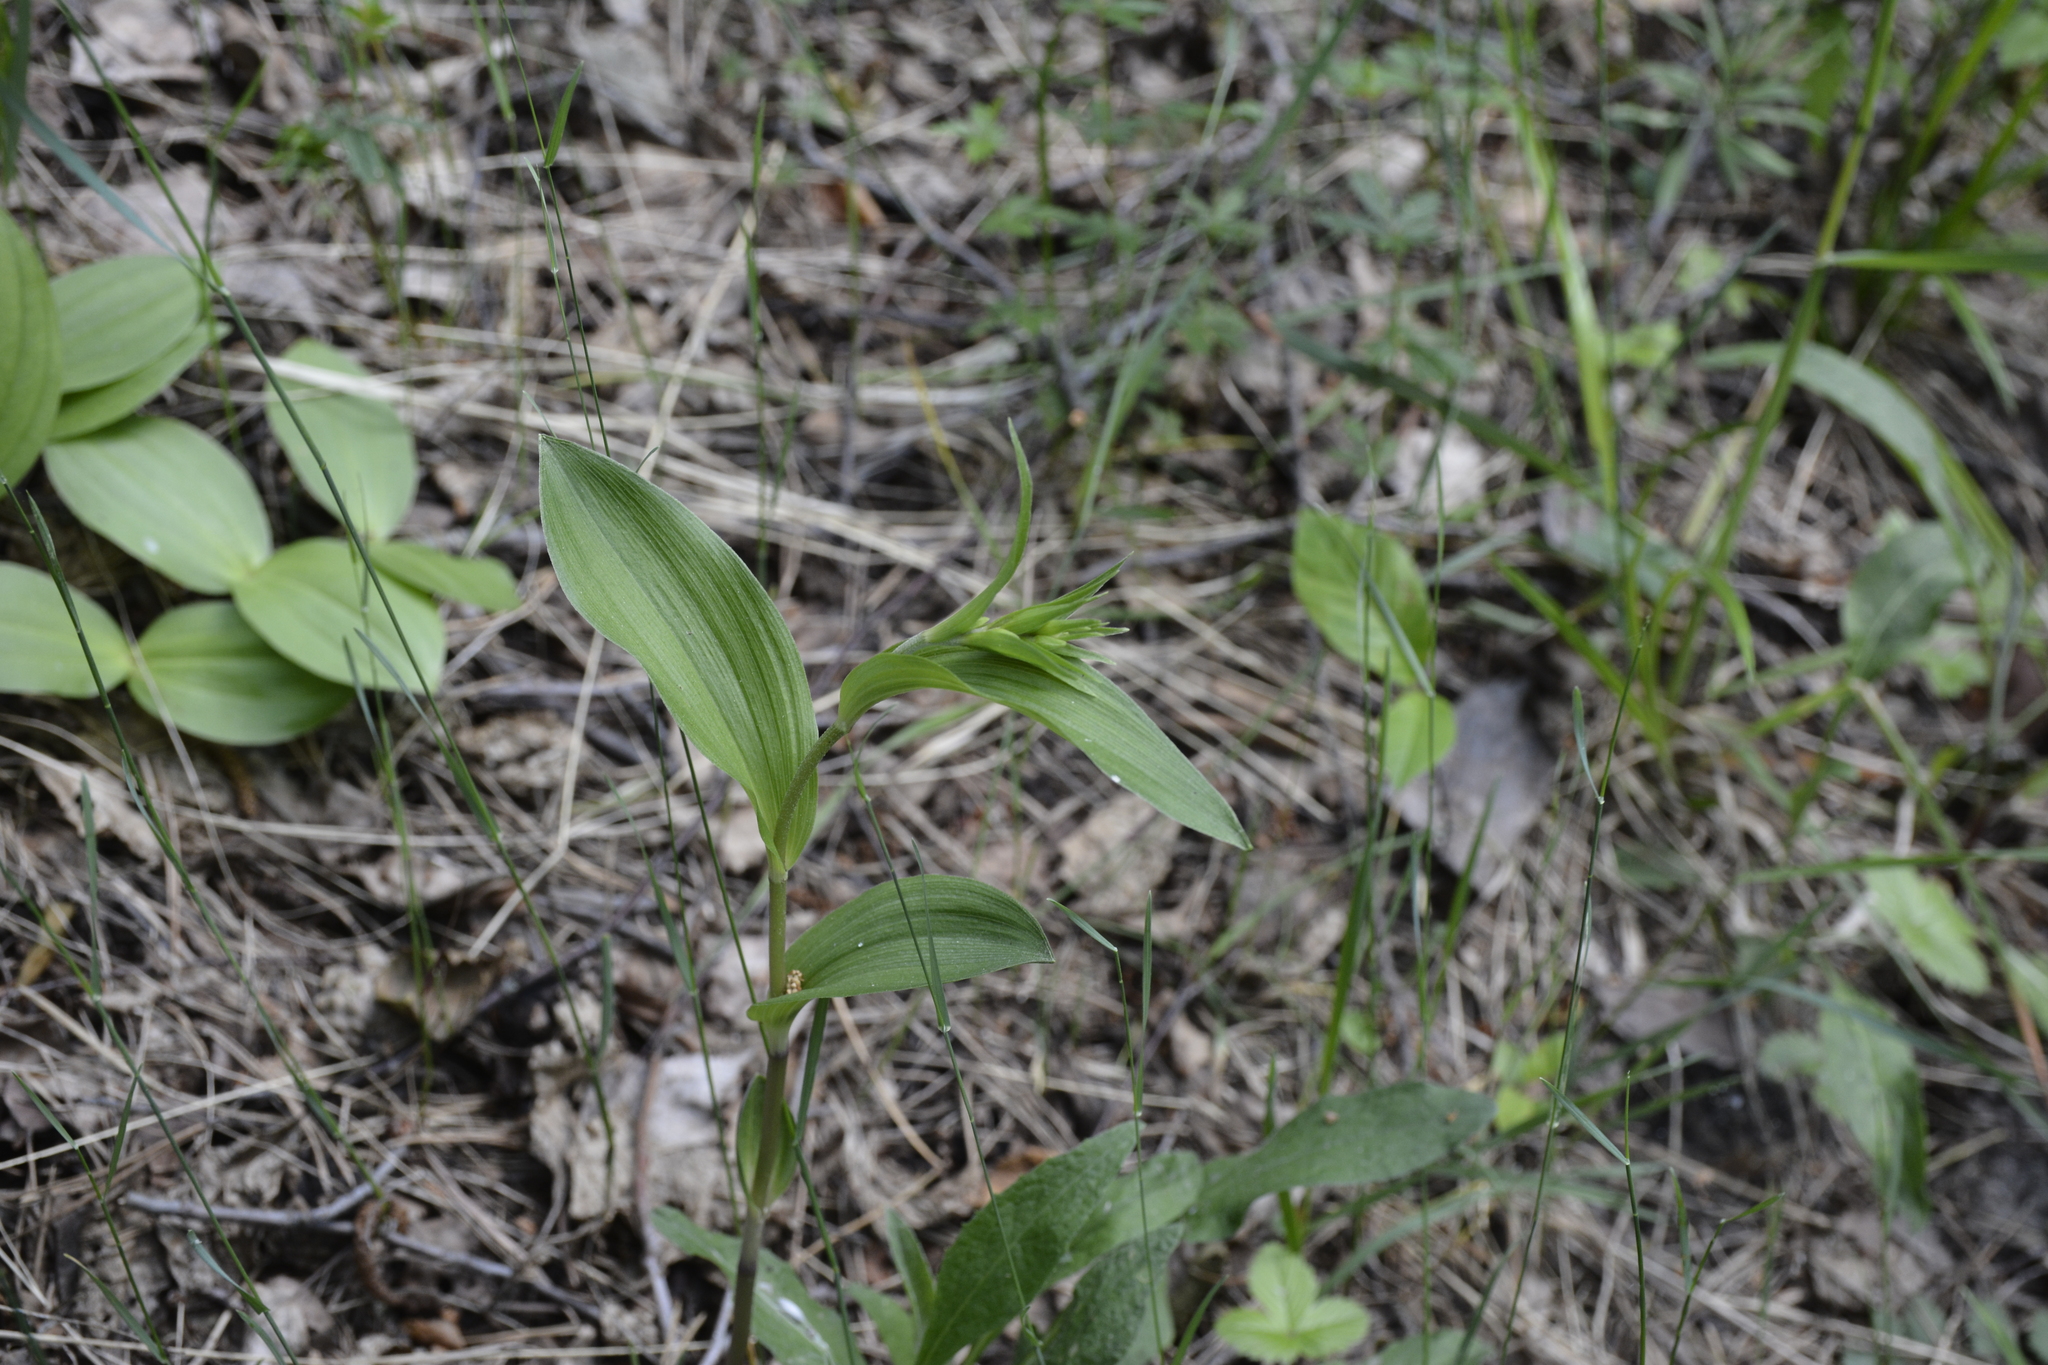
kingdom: Plantae
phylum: Tracheophyta
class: Liliopsida
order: Asparagales
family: Orchidaceae
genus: Epipactis
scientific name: Epipactis palustris
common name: Marsh helleborine
